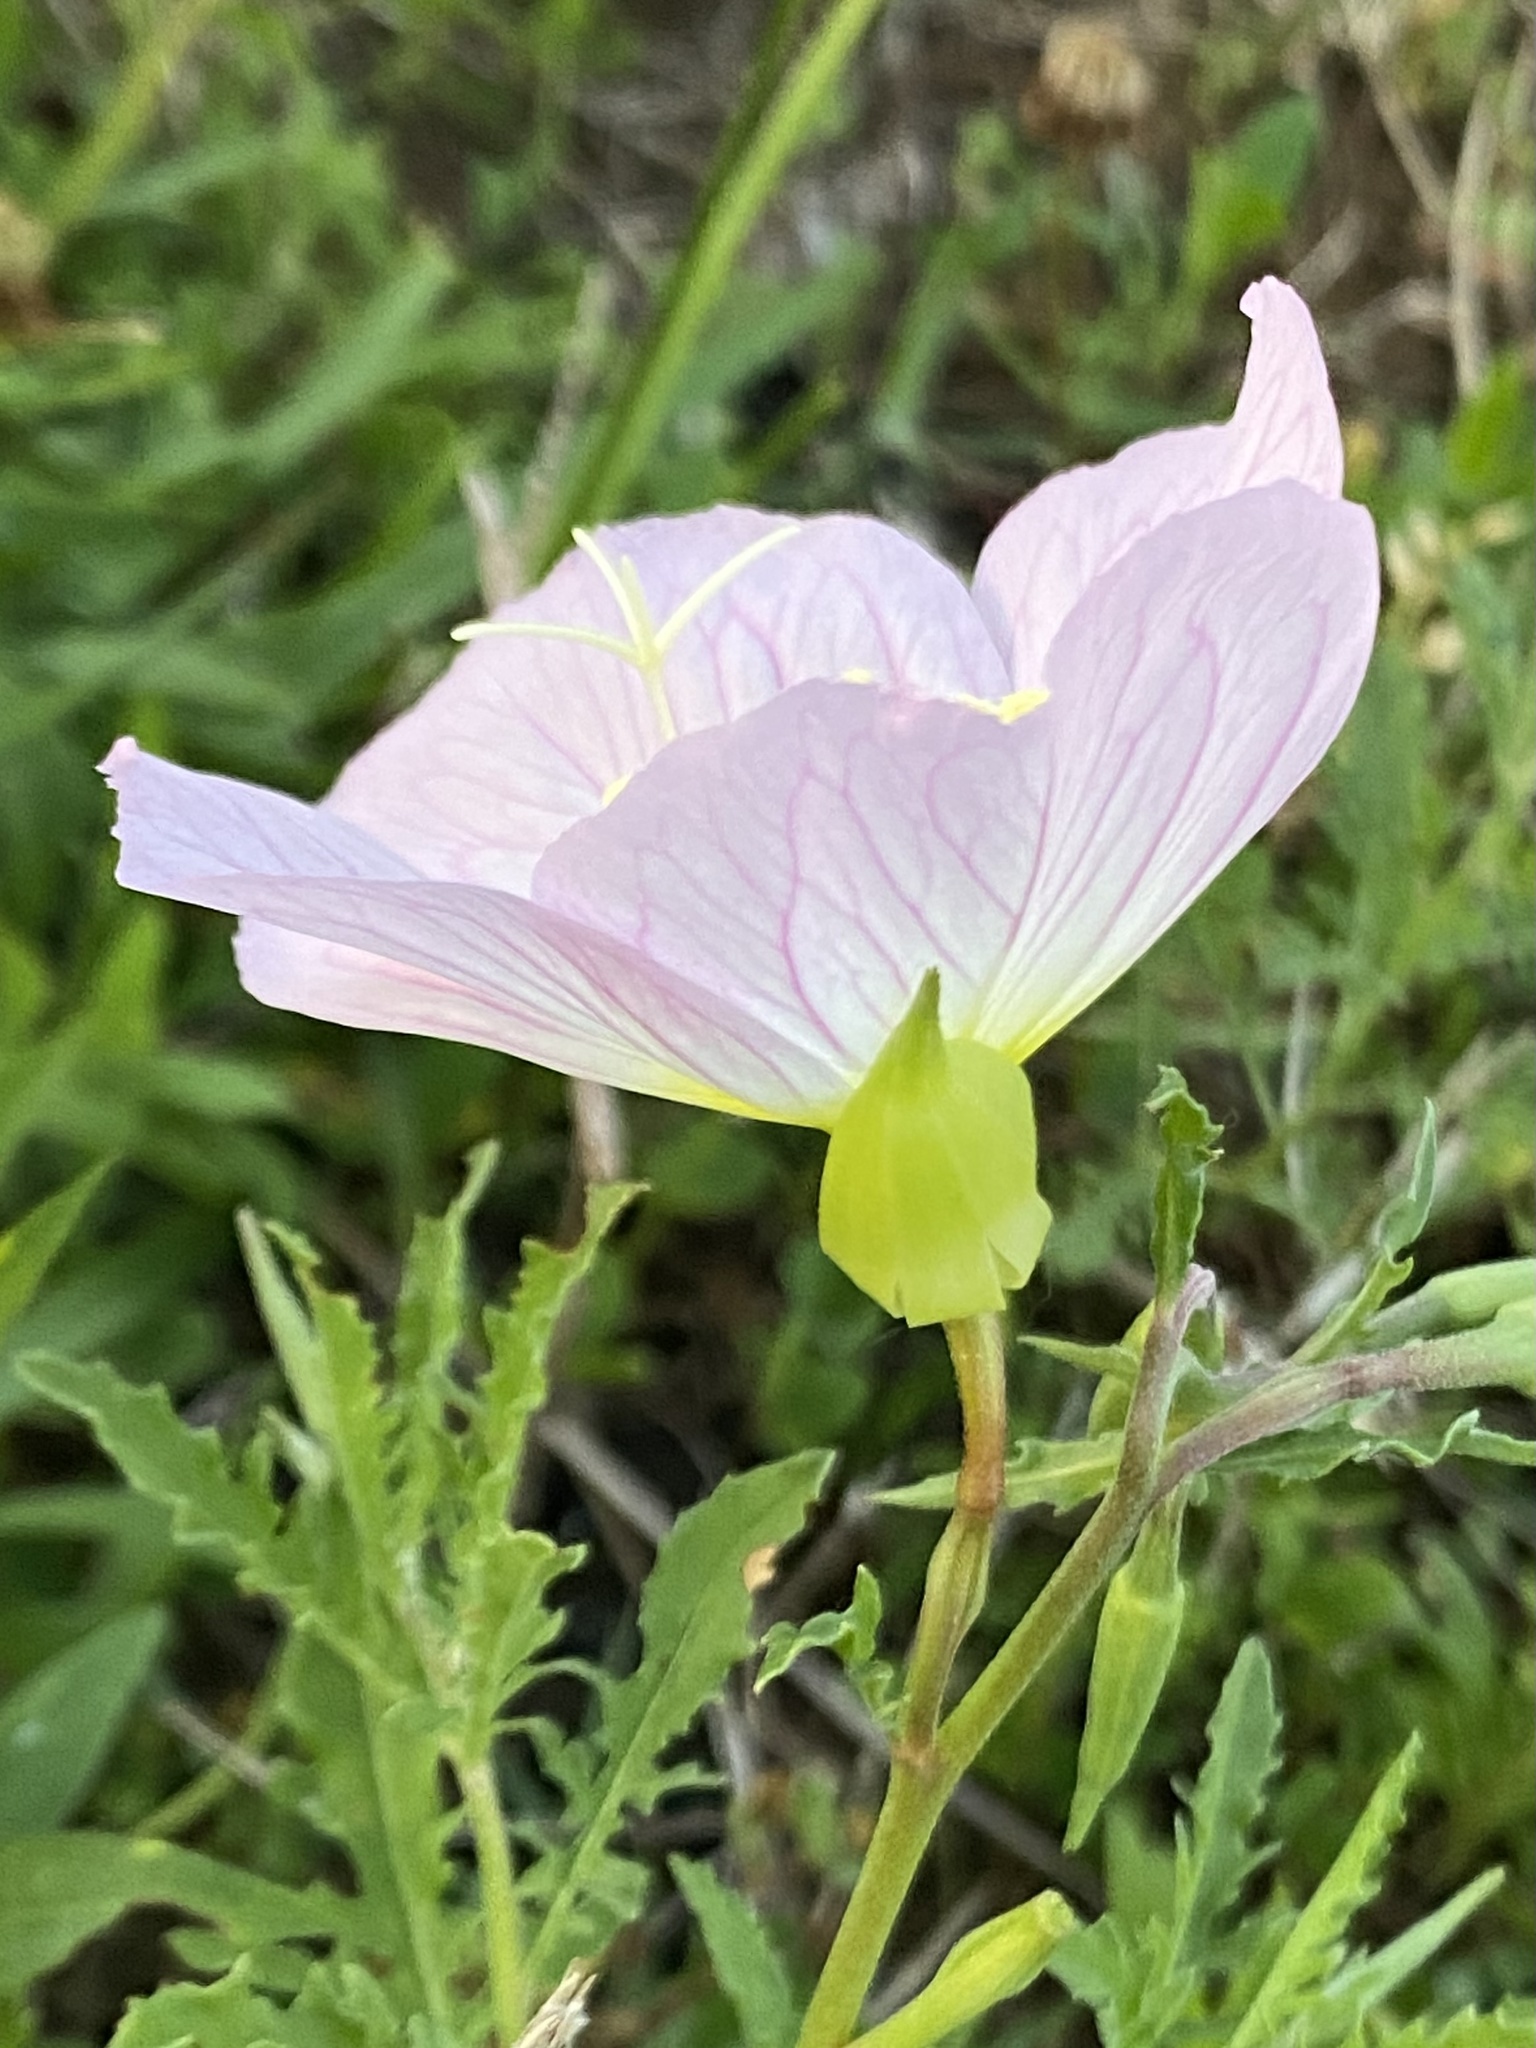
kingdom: Plantae
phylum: Tracheophyta
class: Magnoliopsida
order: Myrtales
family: Onagraceae
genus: Oenothera
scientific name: Oenothera speciosa
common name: White evening-primrose
